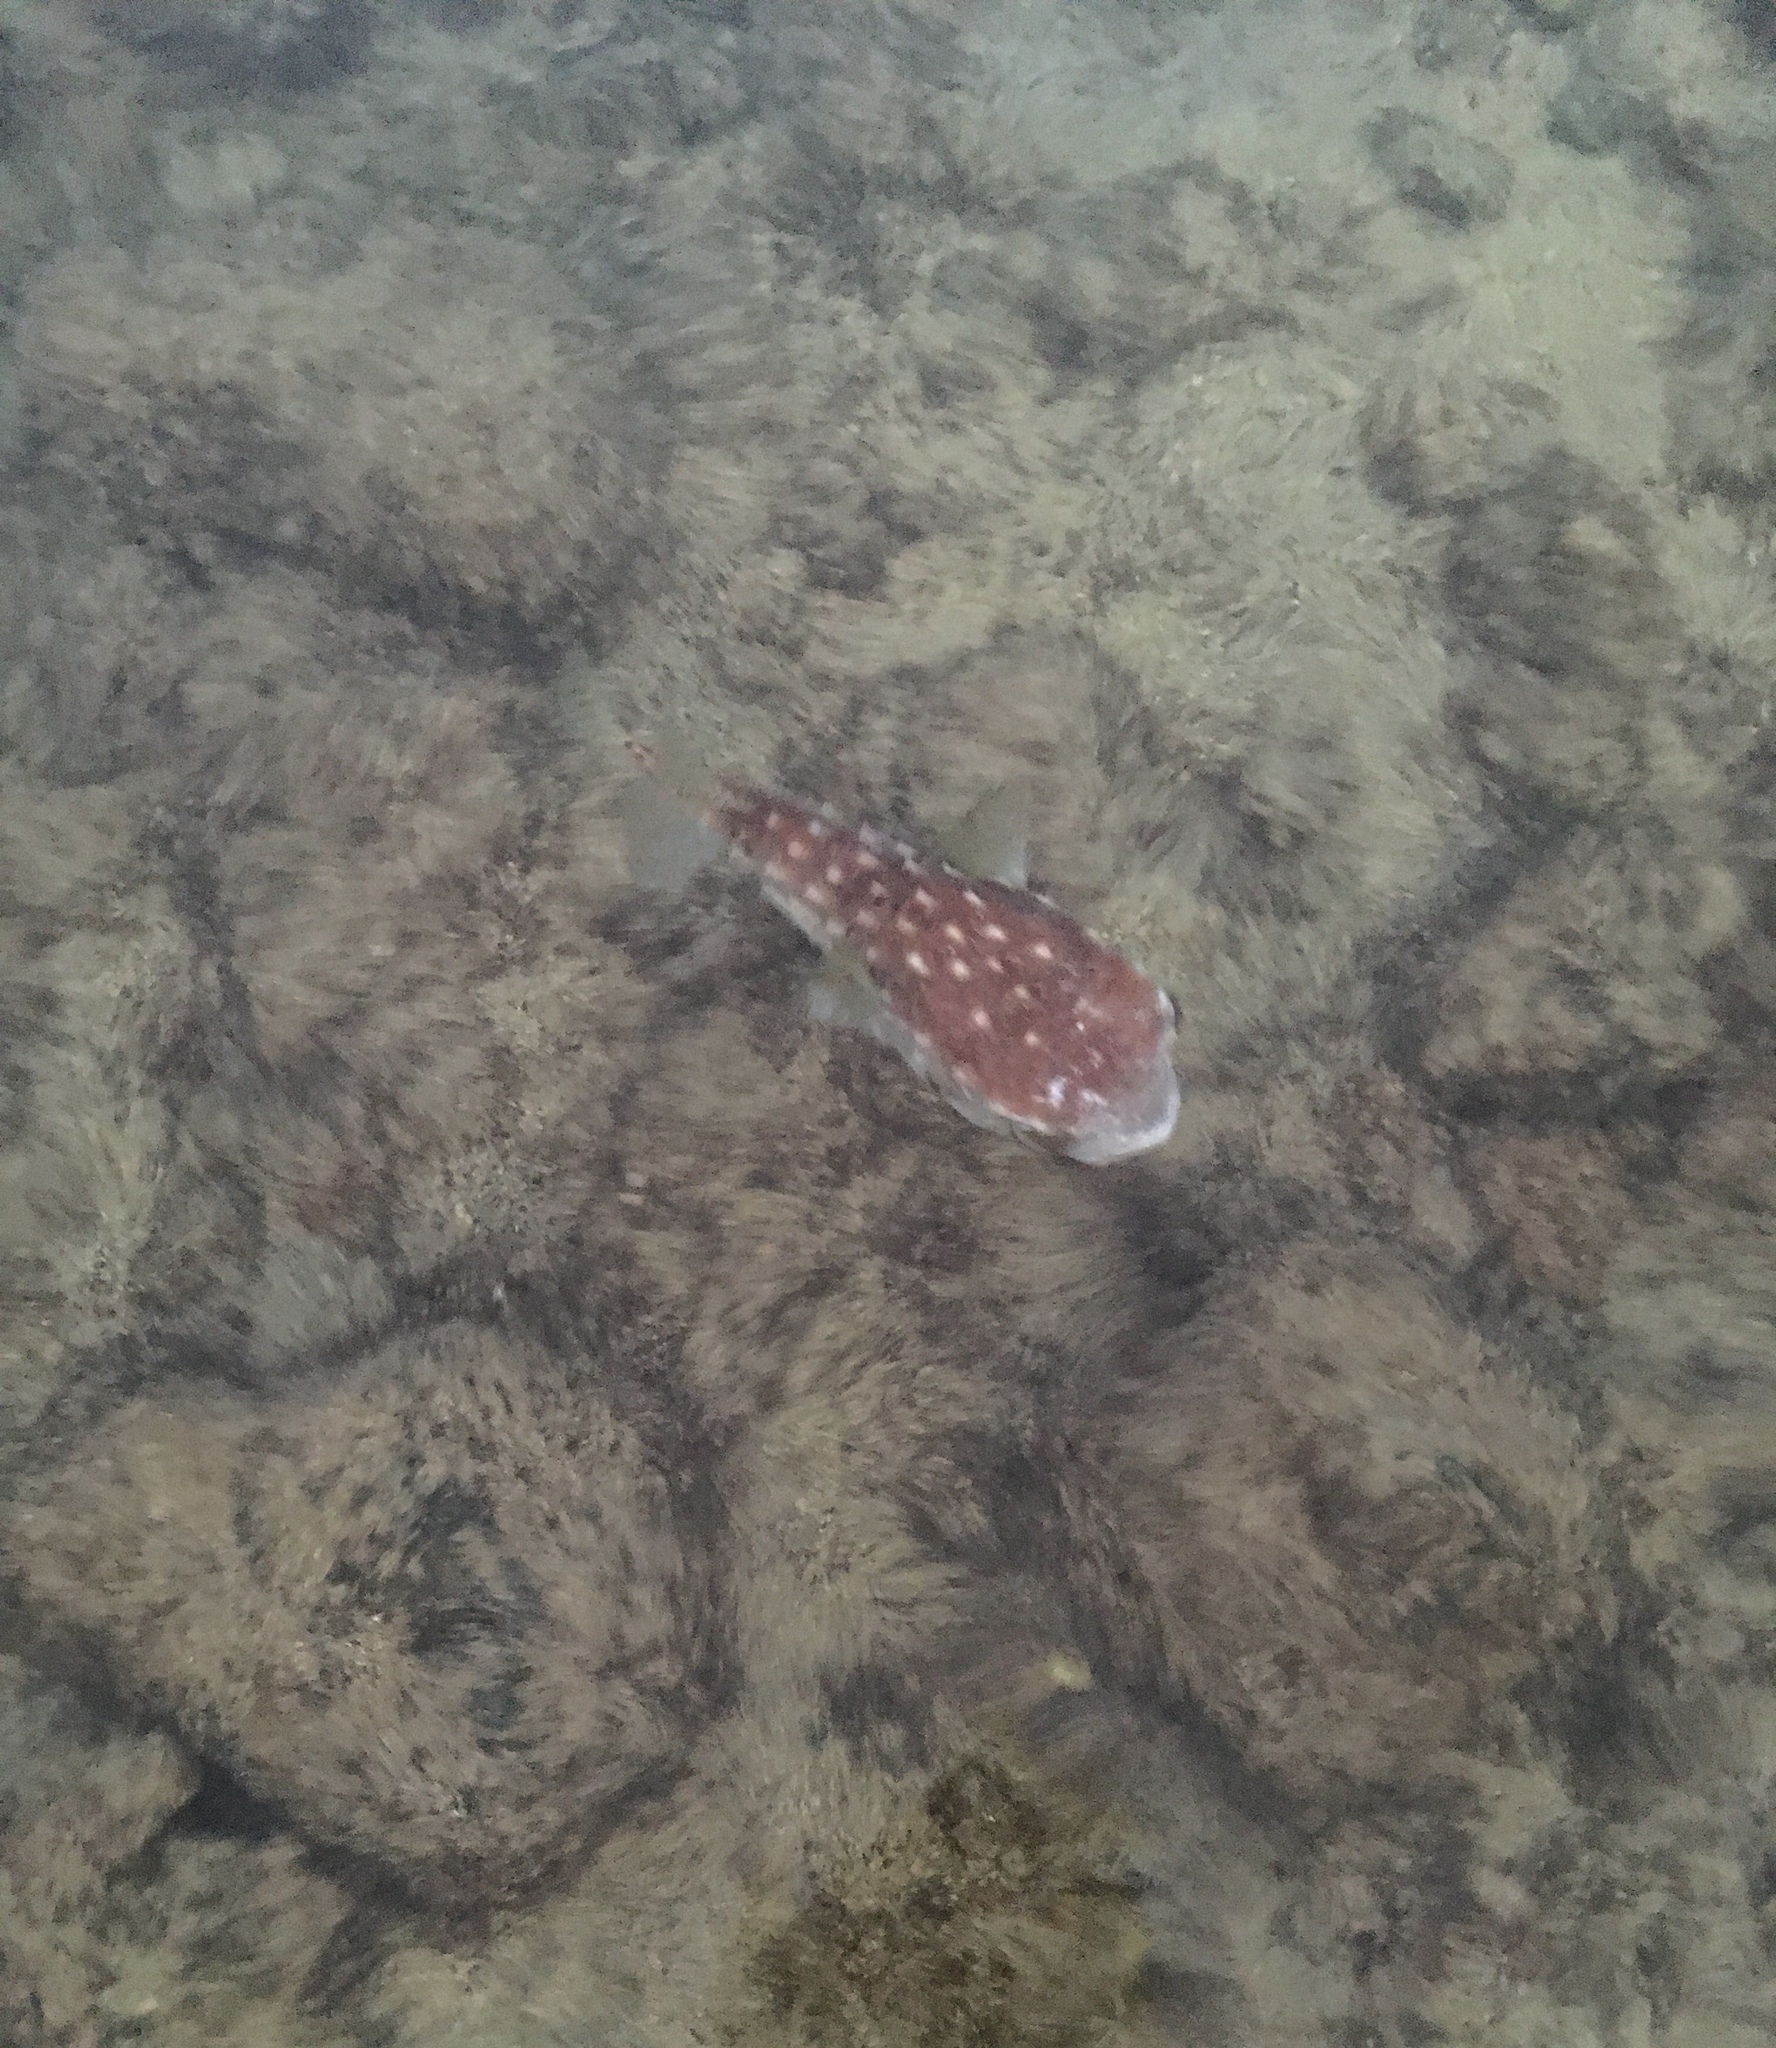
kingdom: Animalia
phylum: Chordata
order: Tetraodontiformes
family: Diodontidae
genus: Chilomycterus
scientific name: Chilomycterus reticulatus
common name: Spotfin burrfish
